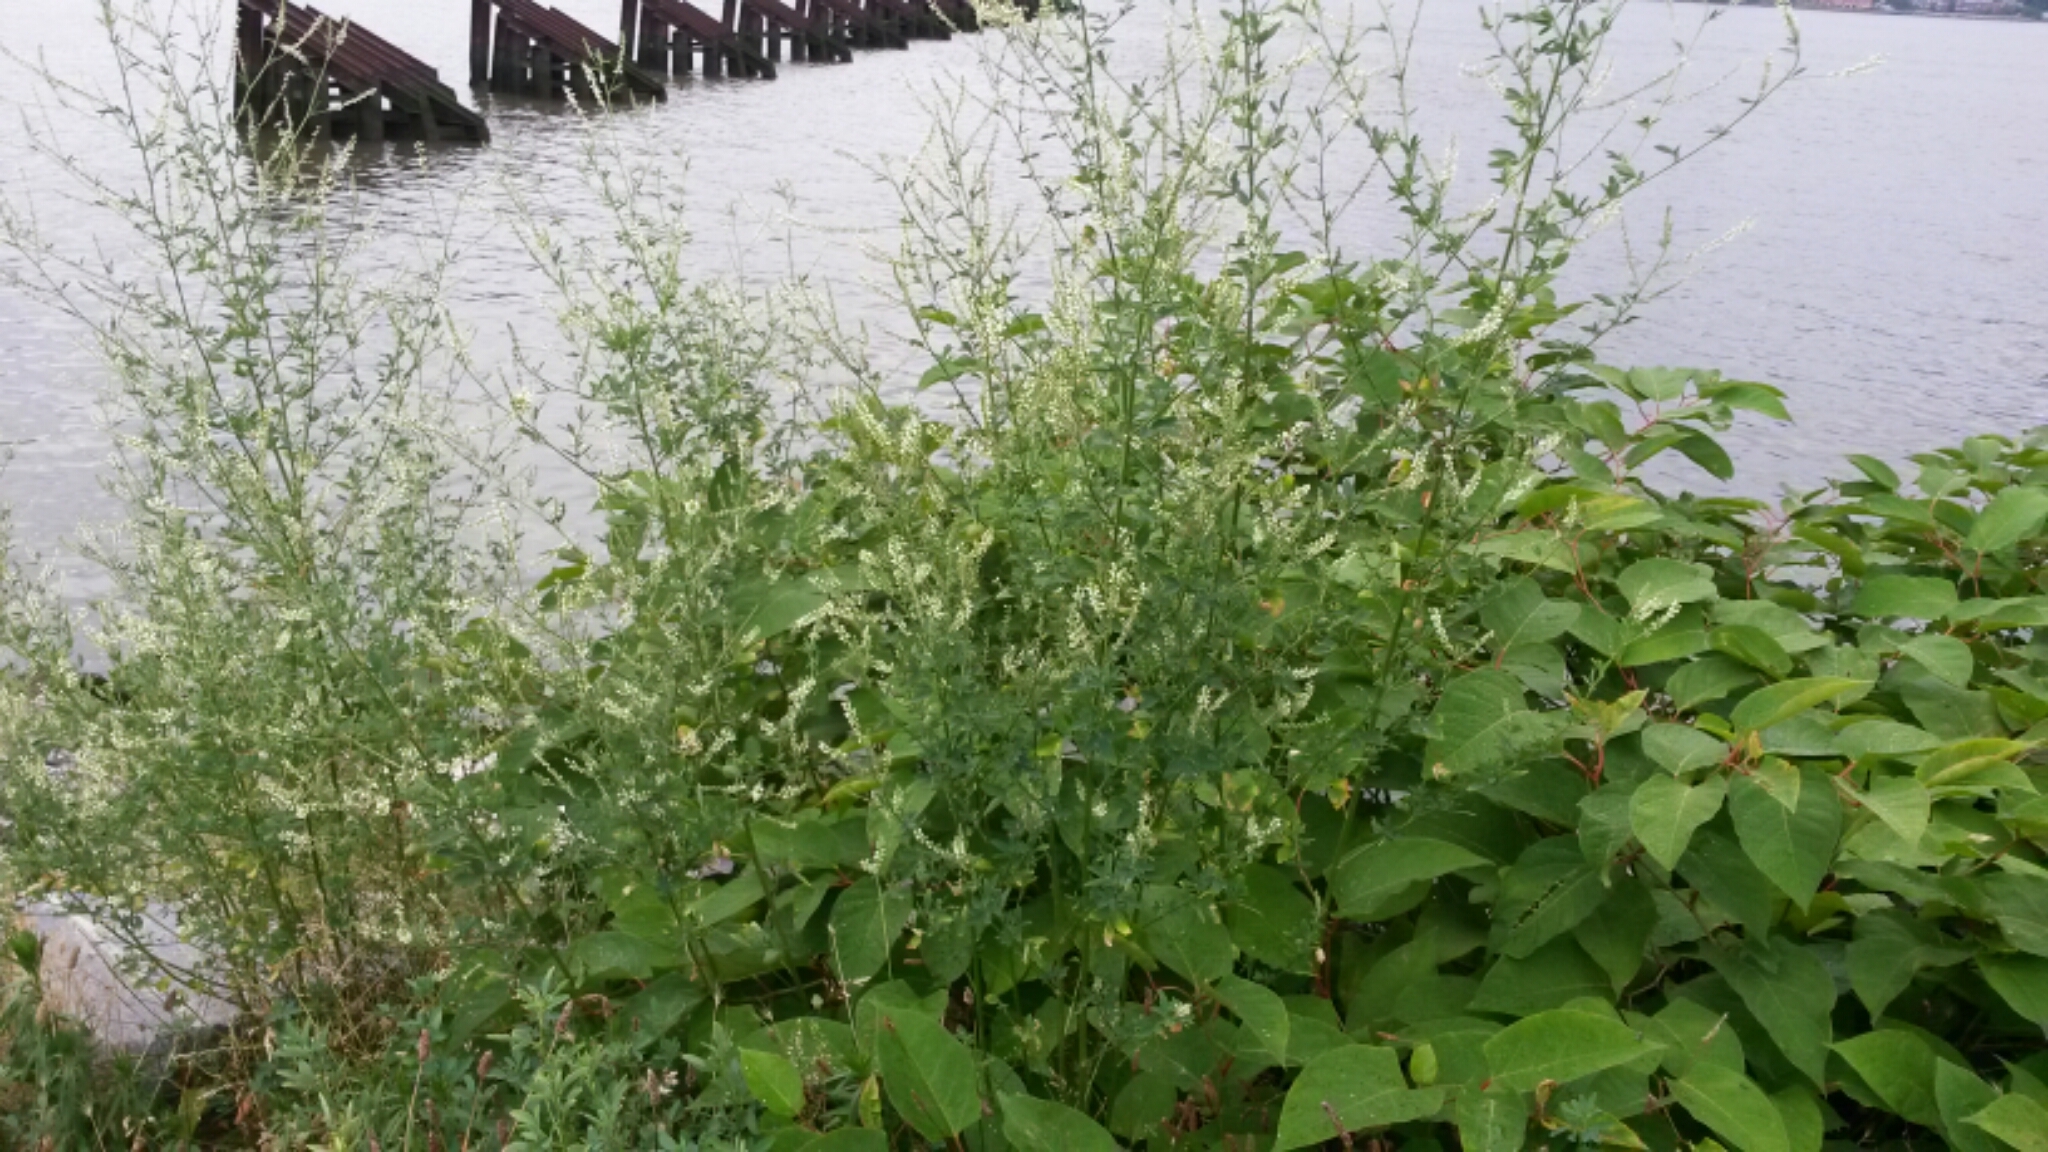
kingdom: Plantae
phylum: Tracheophyta
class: Magnoliopsida
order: Fabales
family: Fabaceae
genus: Melilotus
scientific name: Melilotus albus
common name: White melilot
